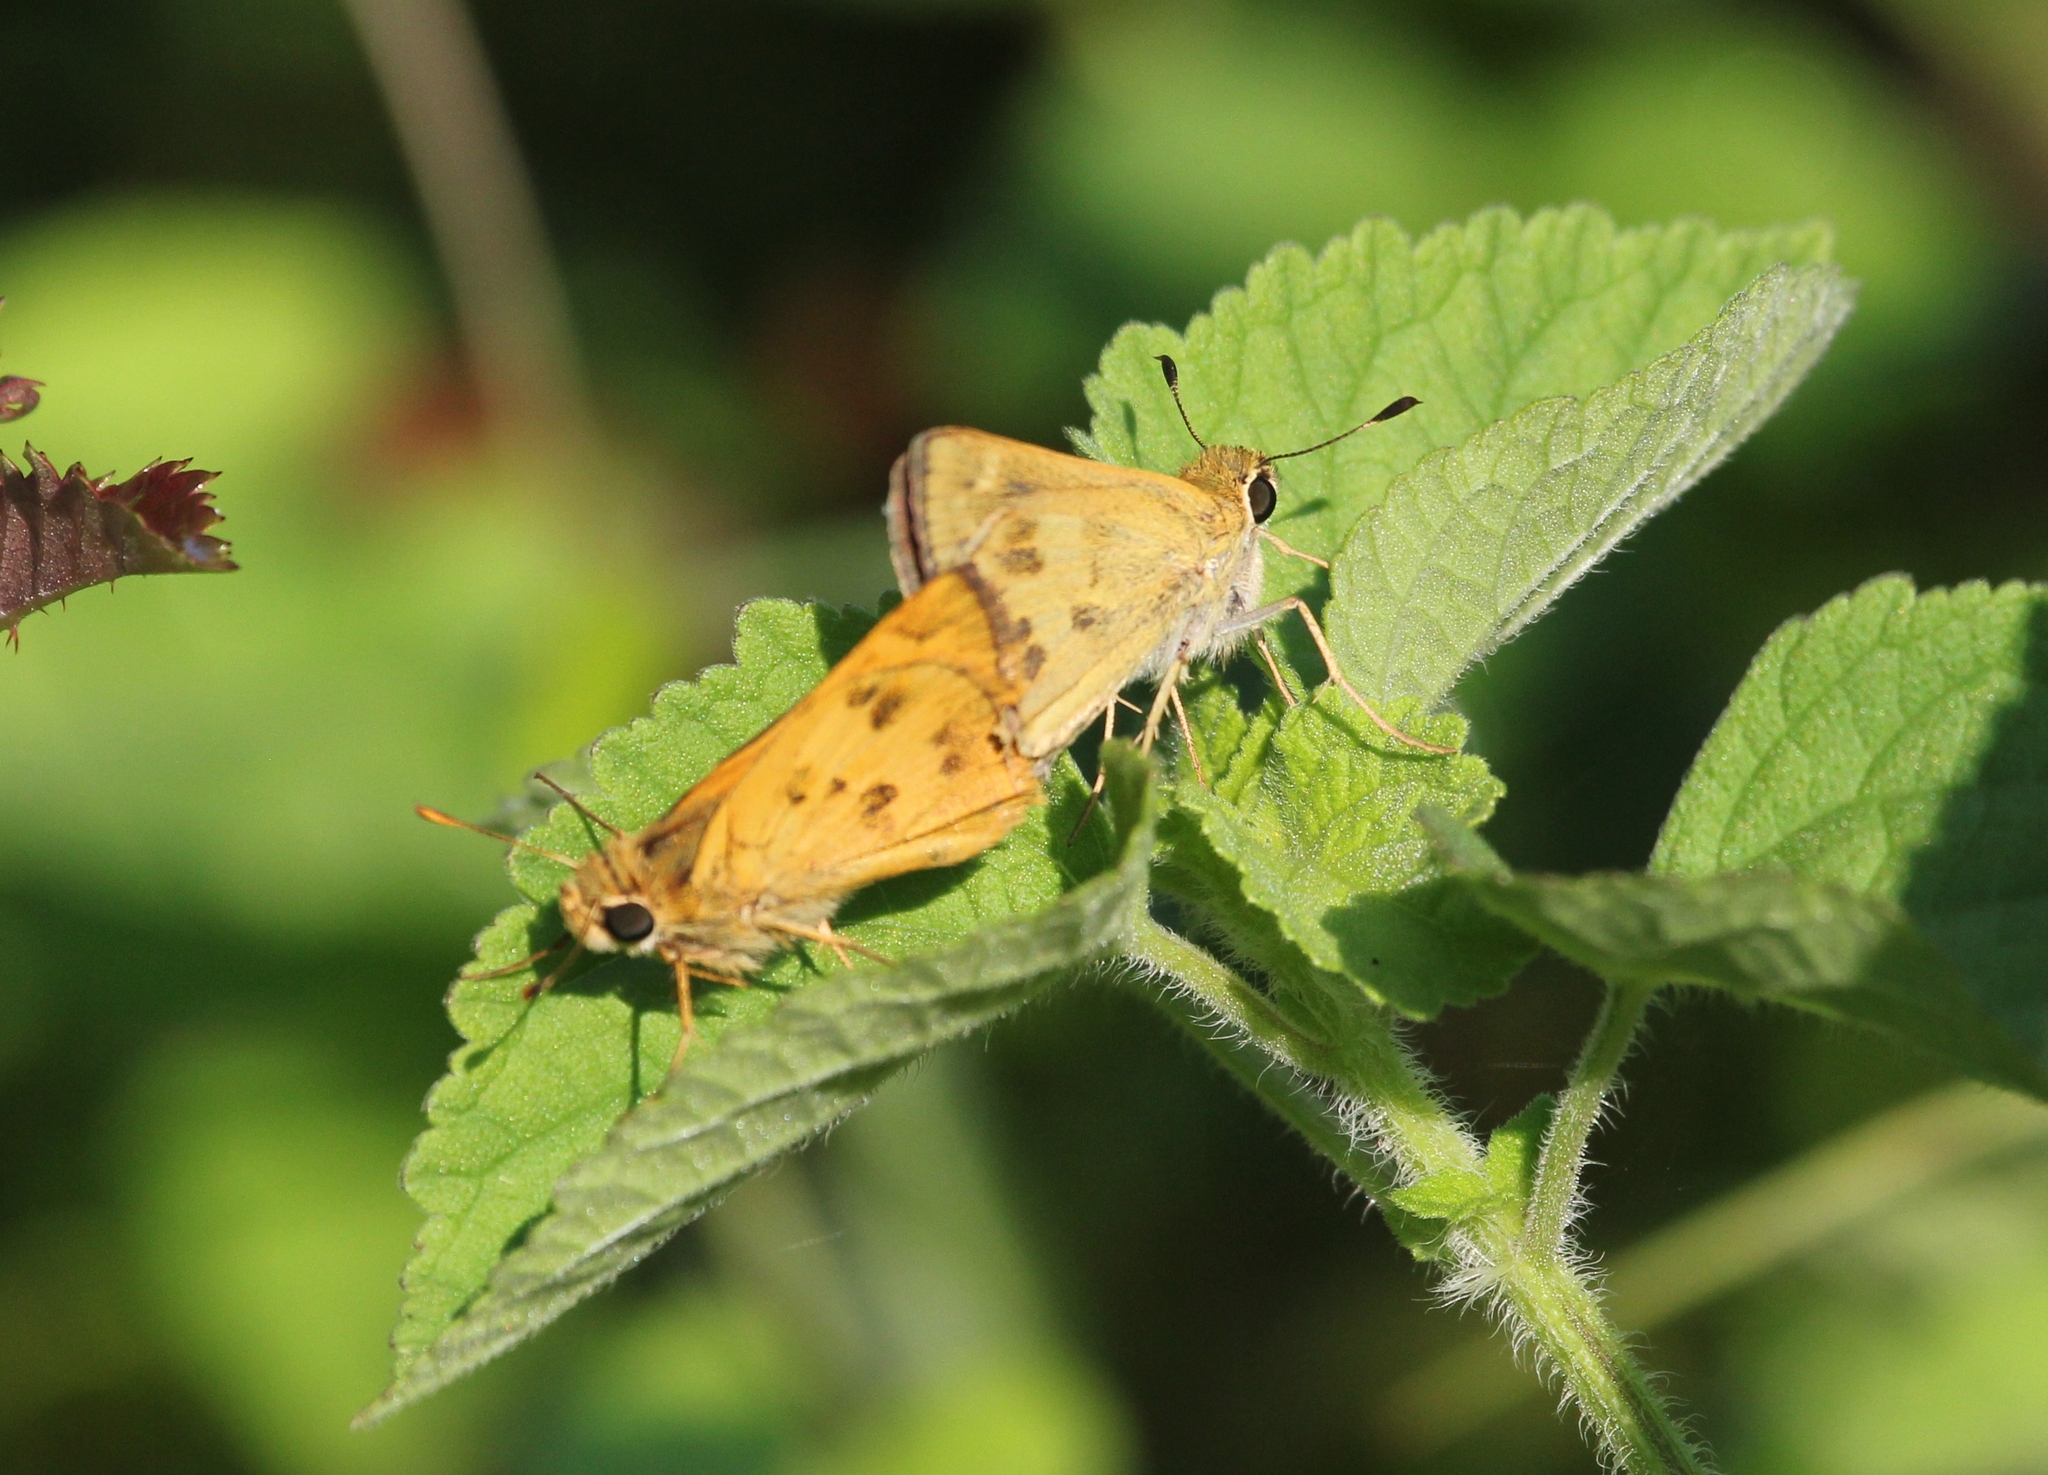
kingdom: Animalia
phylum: Arthropoda
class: Insecta
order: Lepidoptera
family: Hesperiidae
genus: Polites
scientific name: Polites vibex
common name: Whirlabout
